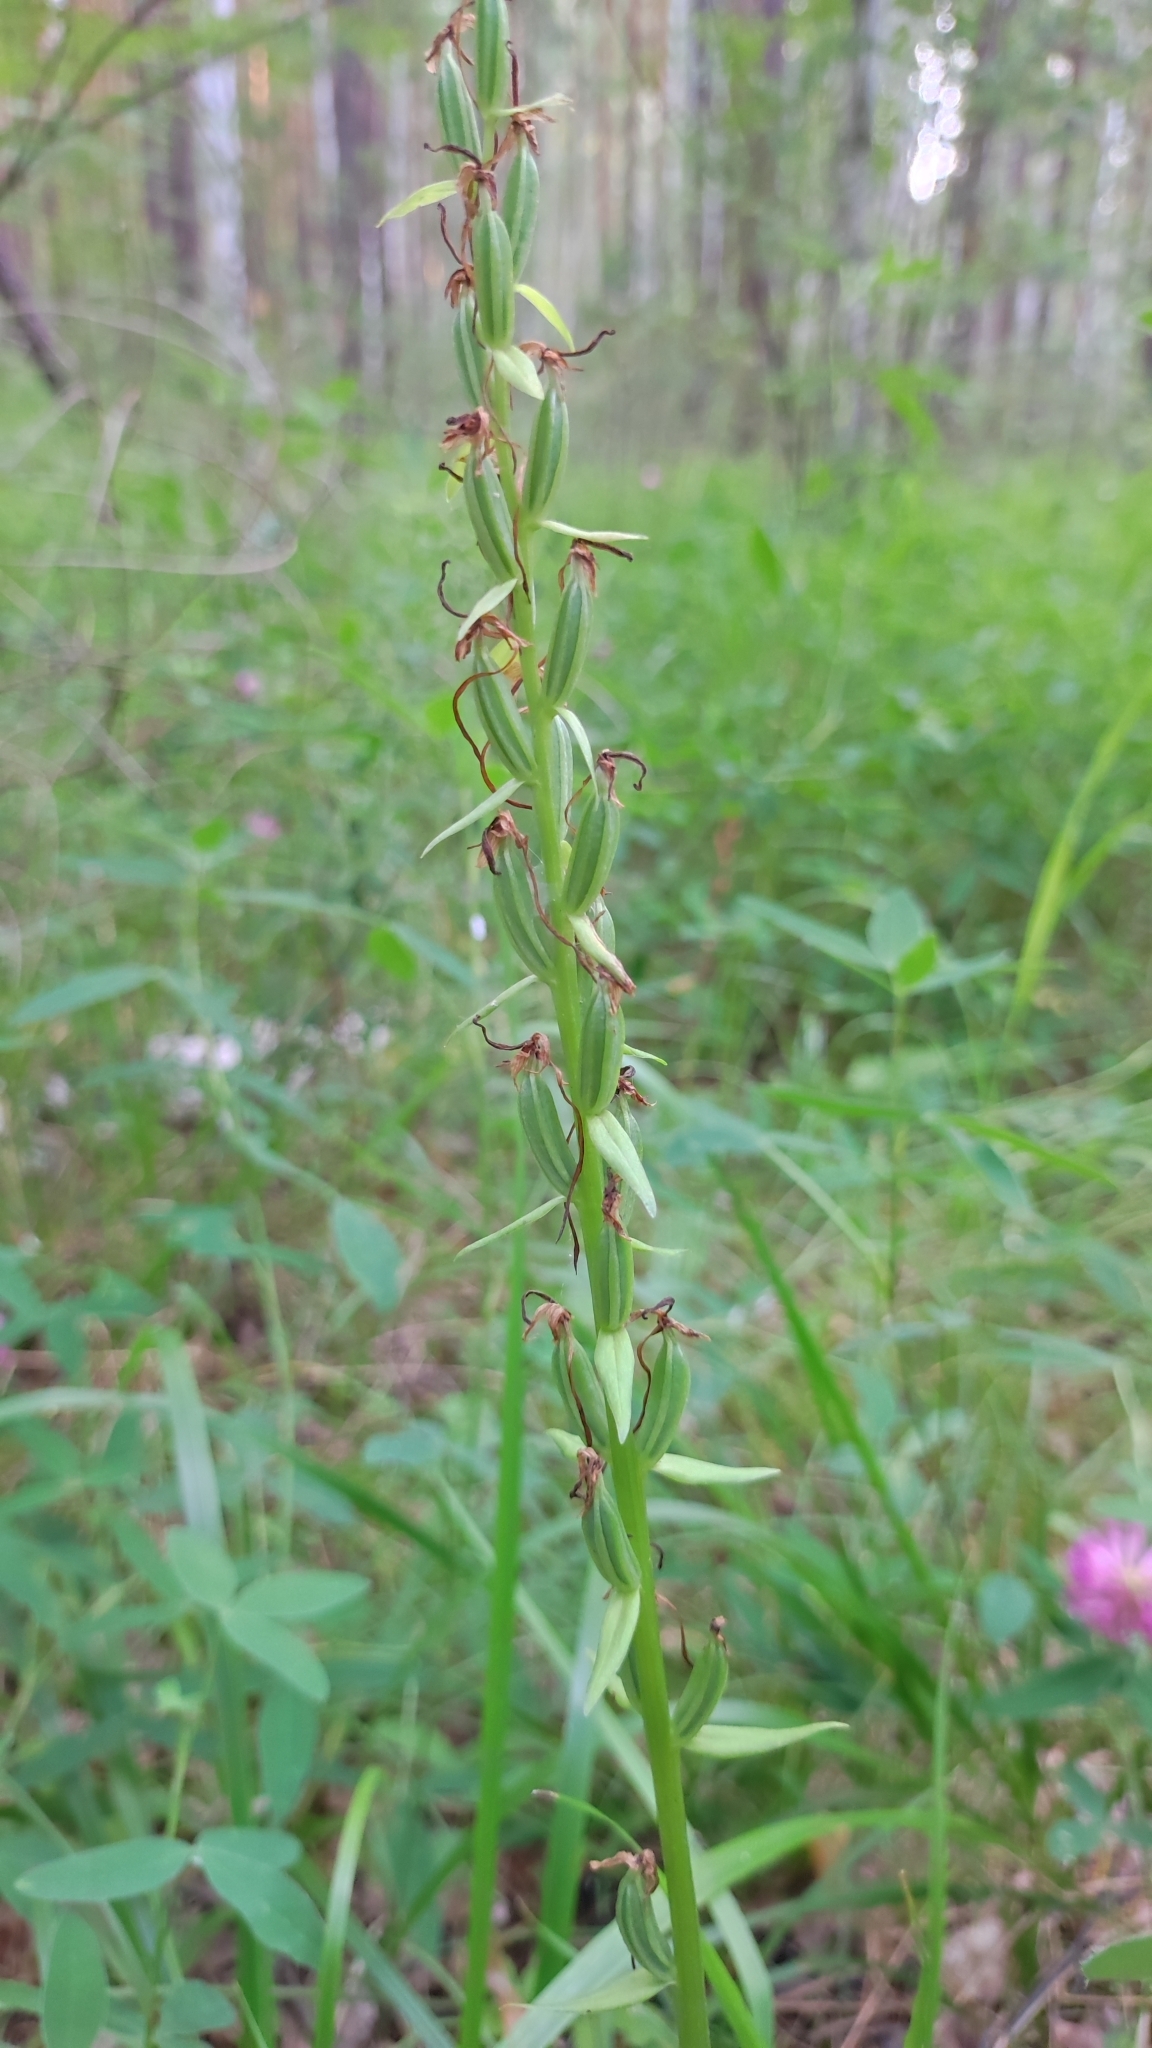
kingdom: Plantae
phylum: Tracheophyta
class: Liliopsida
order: Asparagales
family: Orchidaceae
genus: Platanthera
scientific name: Platanthera bifolia
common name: Lesser butterfly-orchid
